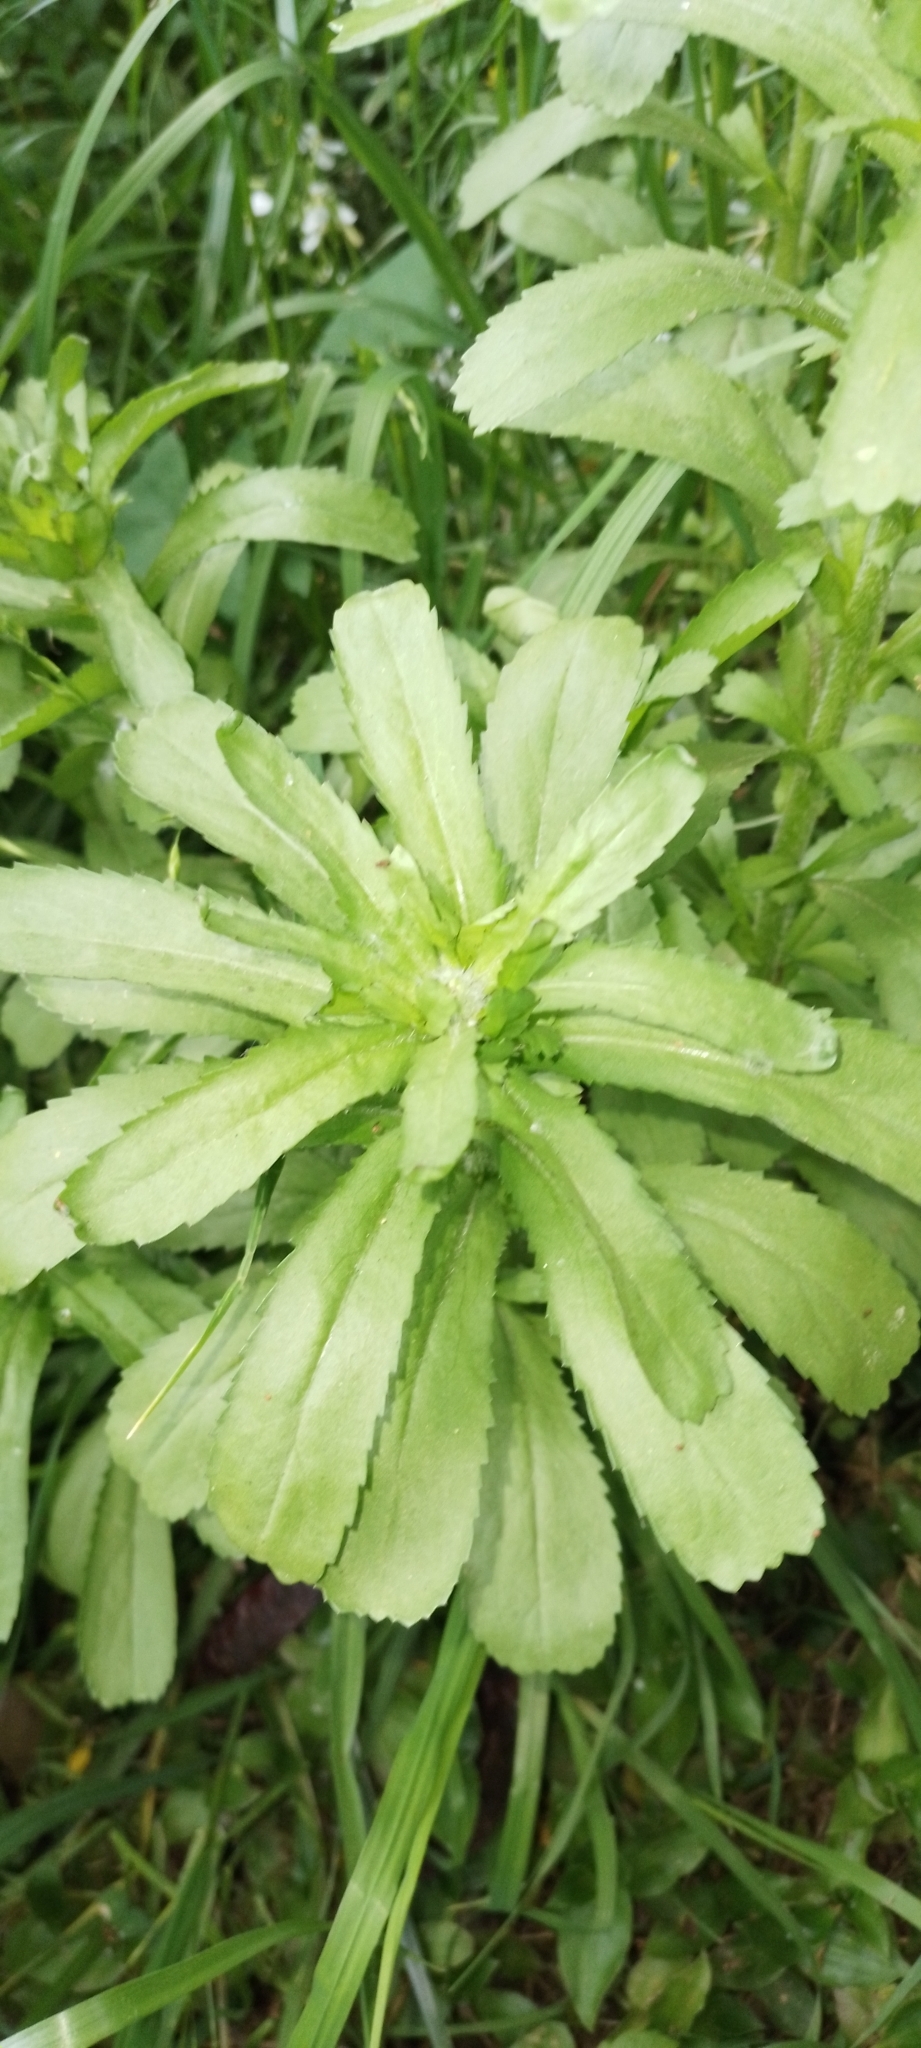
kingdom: Plantae
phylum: Tracheophyta
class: Magnoliopsida
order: Asterales
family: Asteraceae
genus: Coleostephus
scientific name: Coleostephus myconis
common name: Mediterranean marigold
